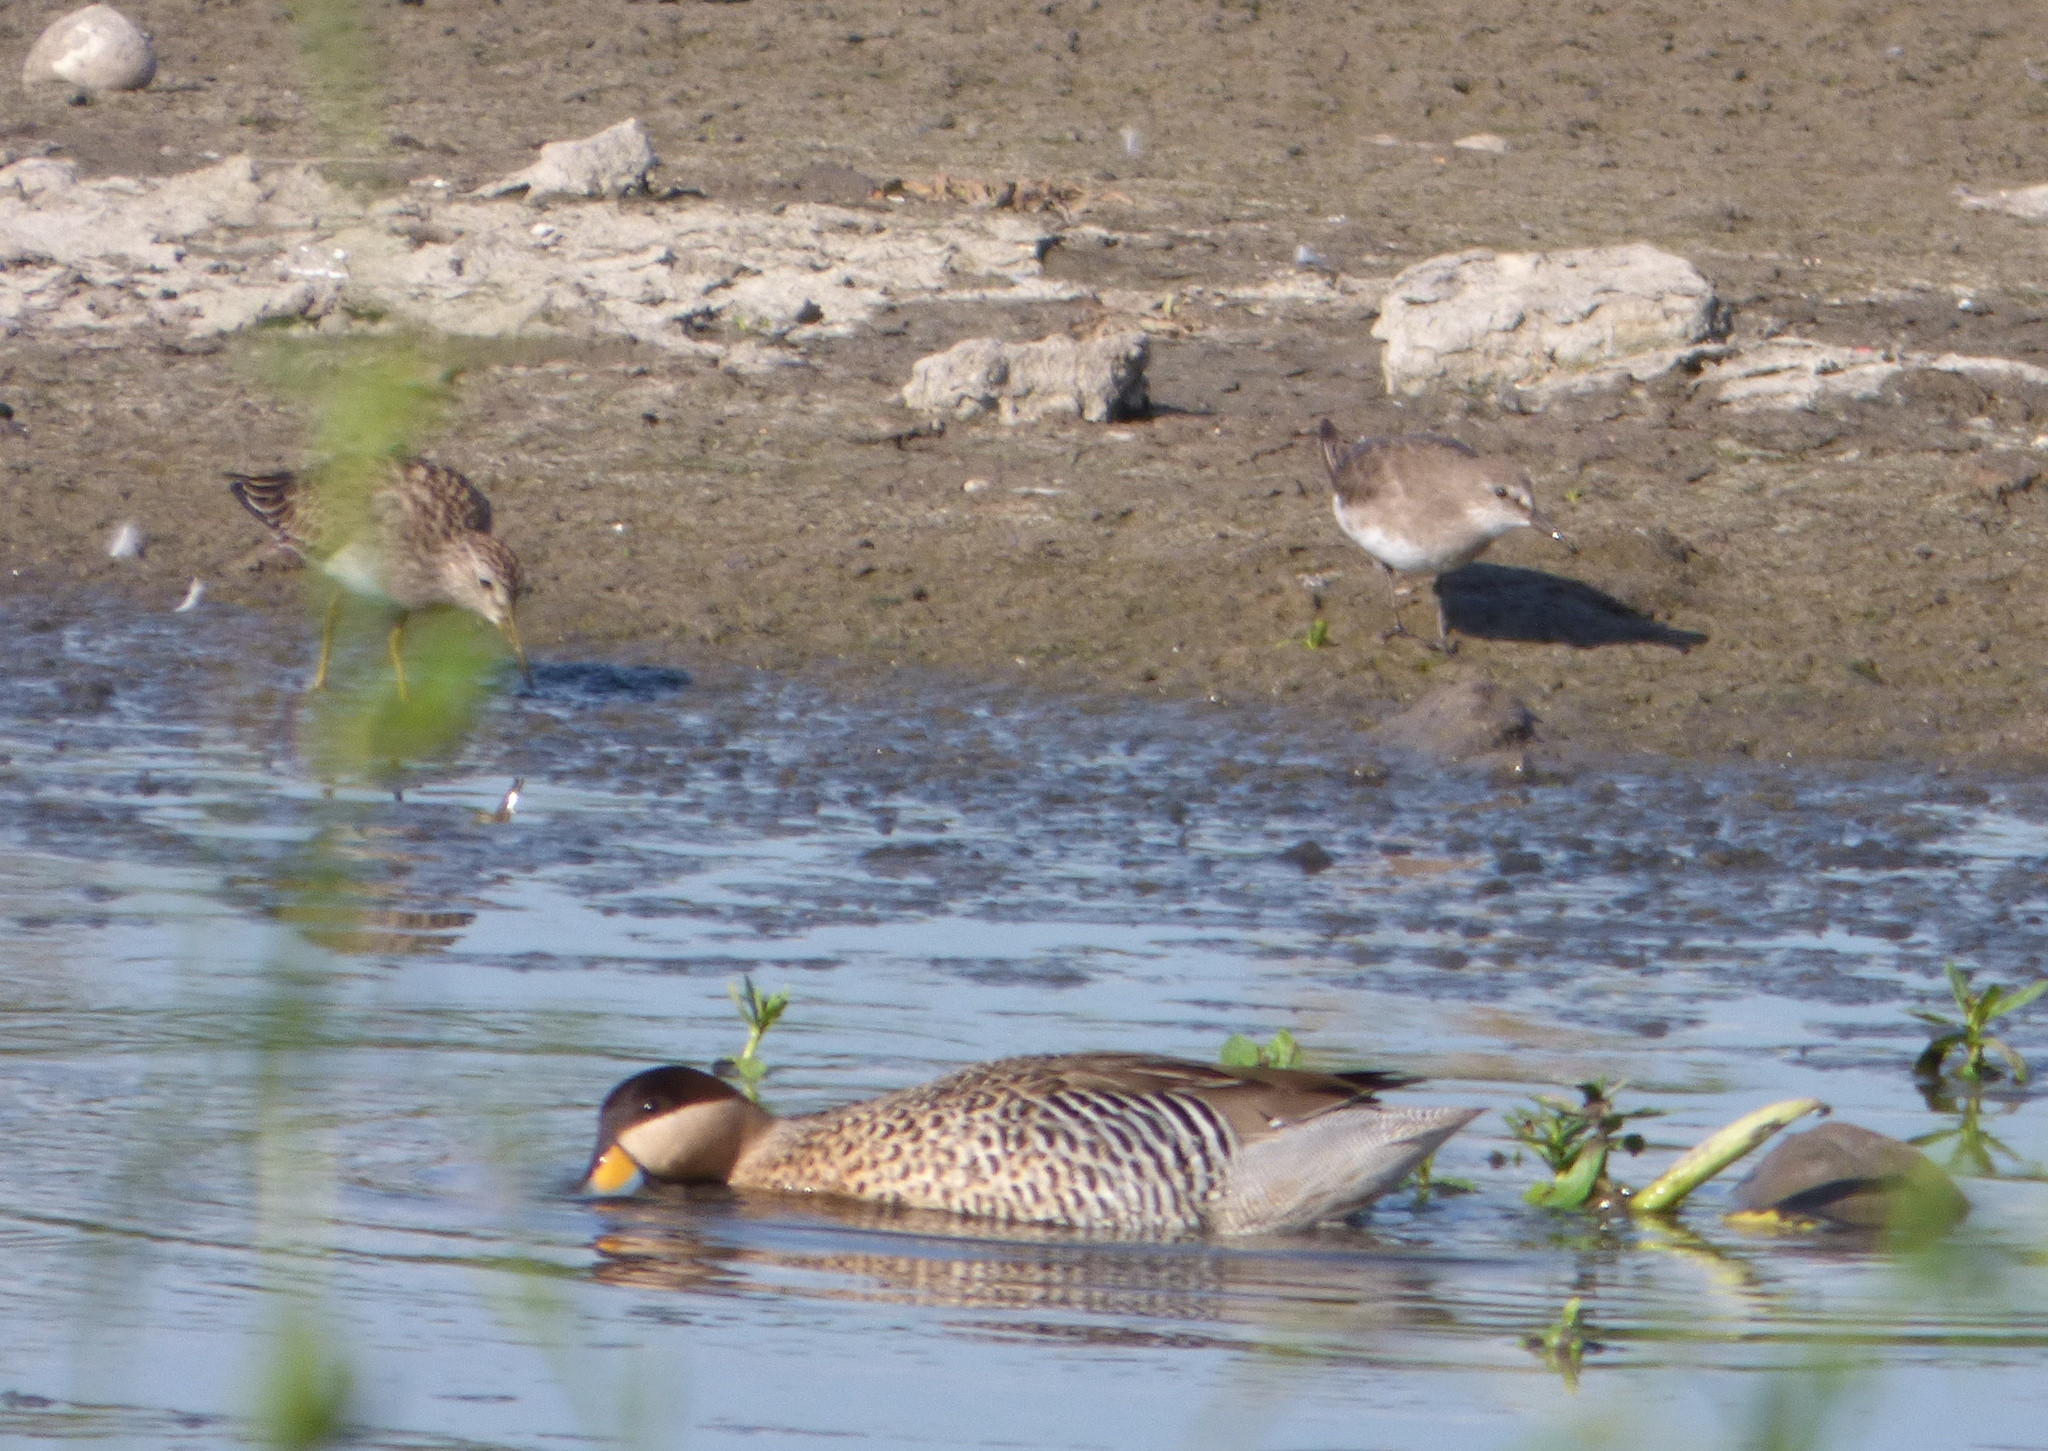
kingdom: Animalia
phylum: Chordata
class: Aves
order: Anseriformes
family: Anatidae
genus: Spatula
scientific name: Spatula versicolor
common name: Silver teal
